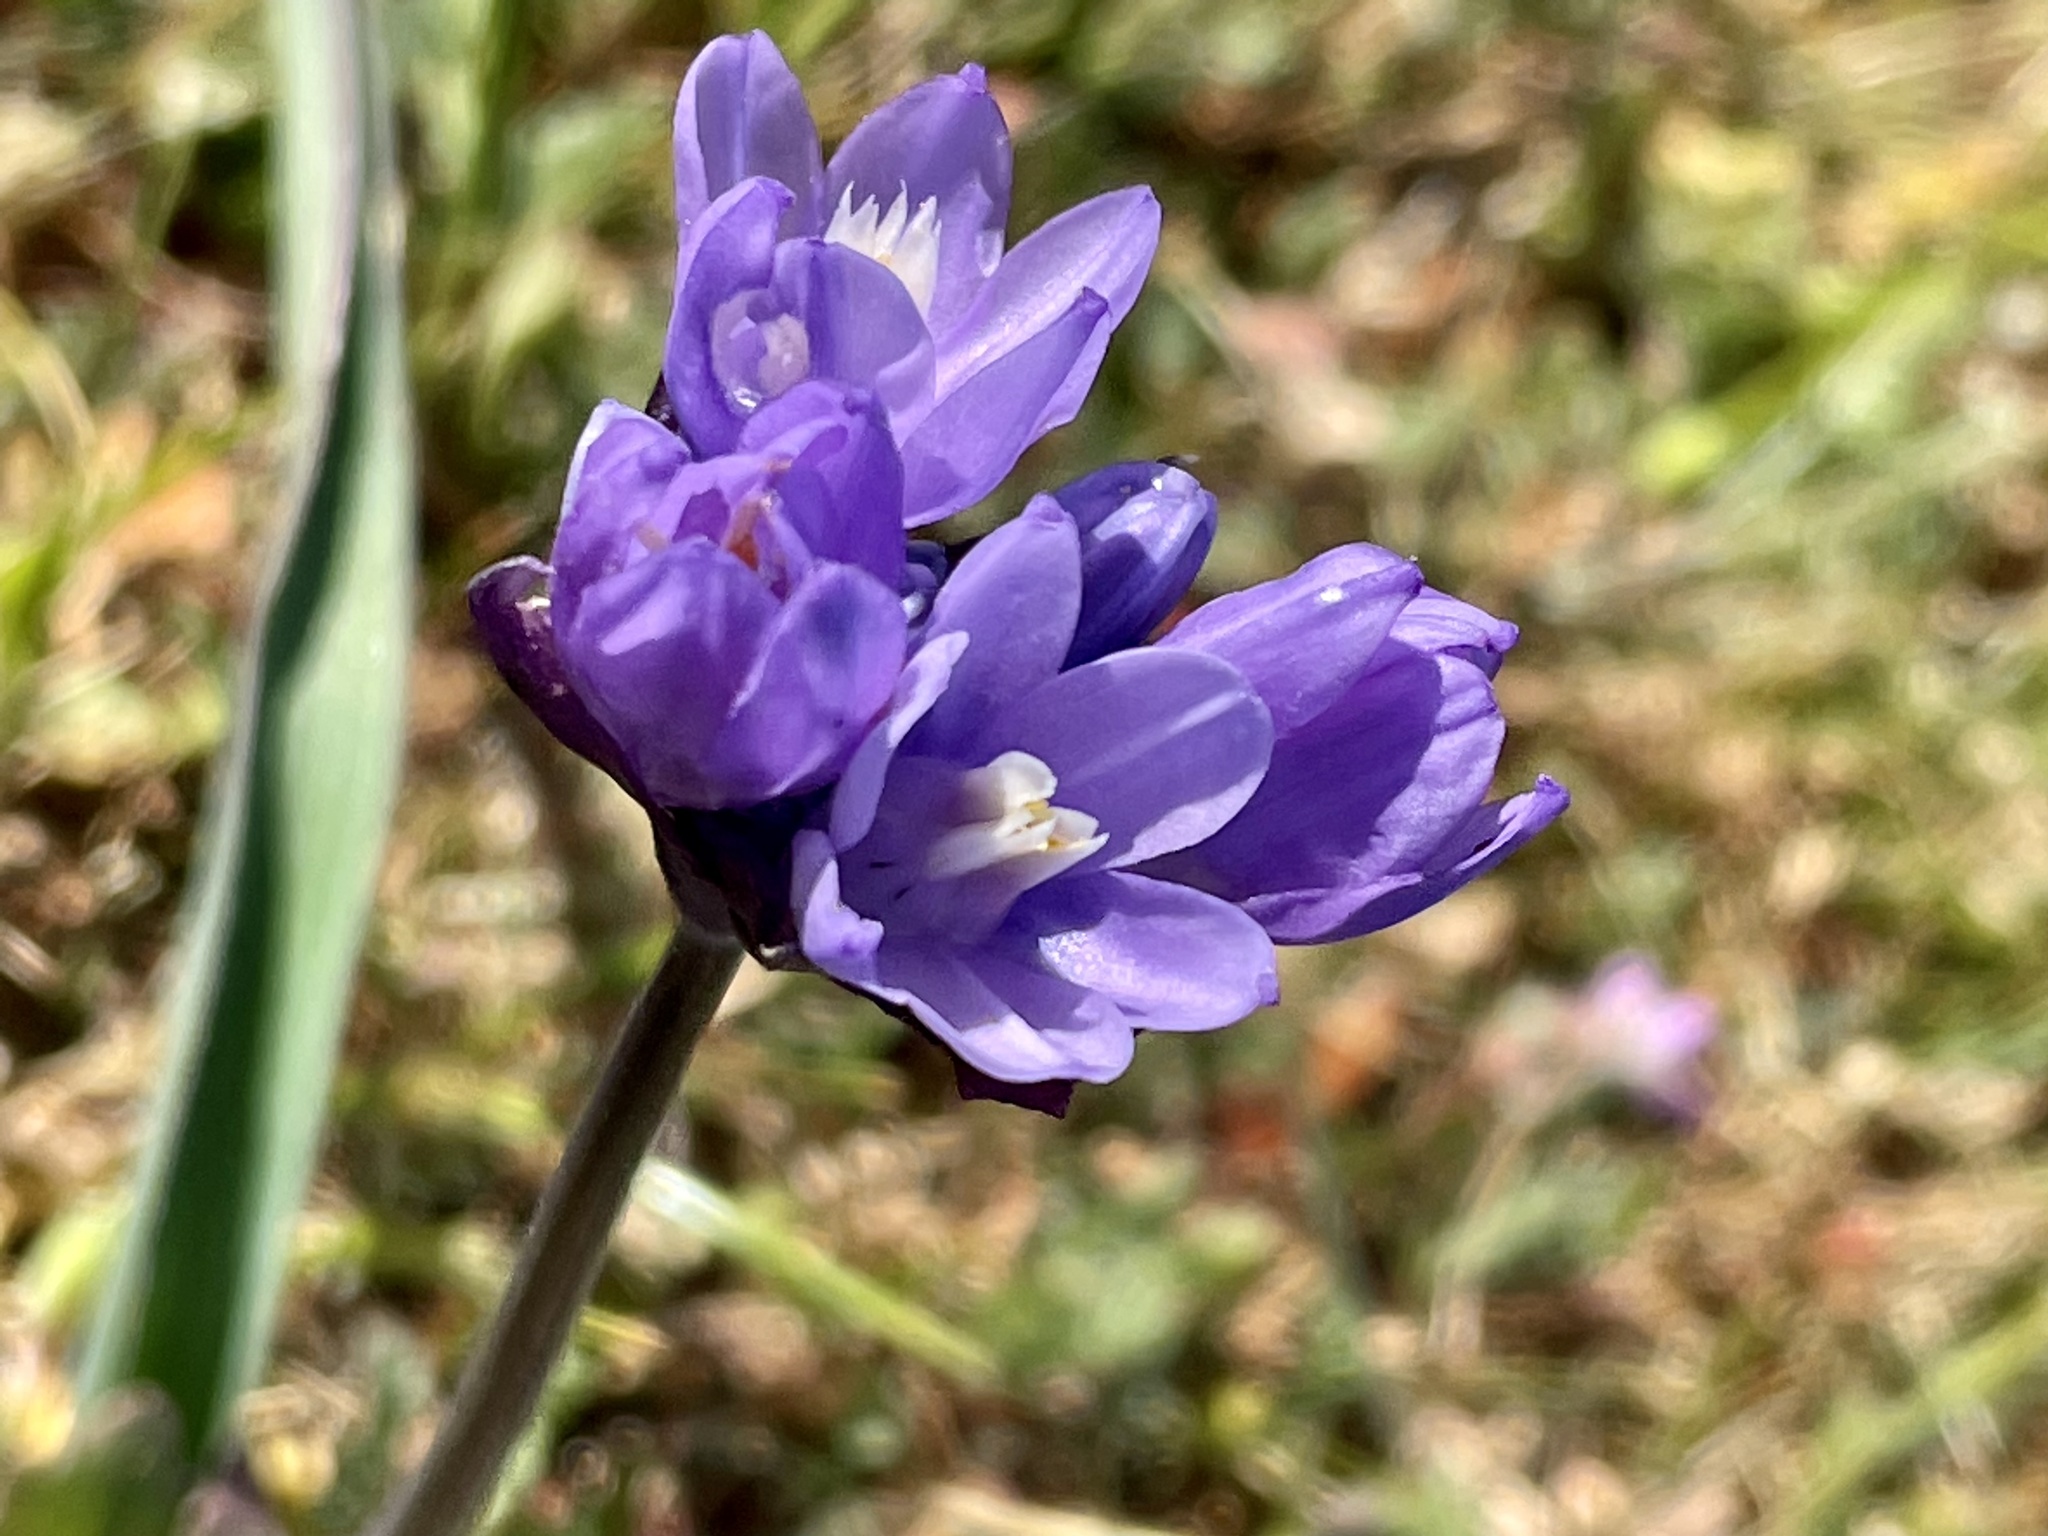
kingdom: Plantae
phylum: Tracheophyta
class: Liliopsida
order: Asparagales
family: Asparagaceae
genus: Dipterostemon
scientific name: Dipterostemon capitatus
